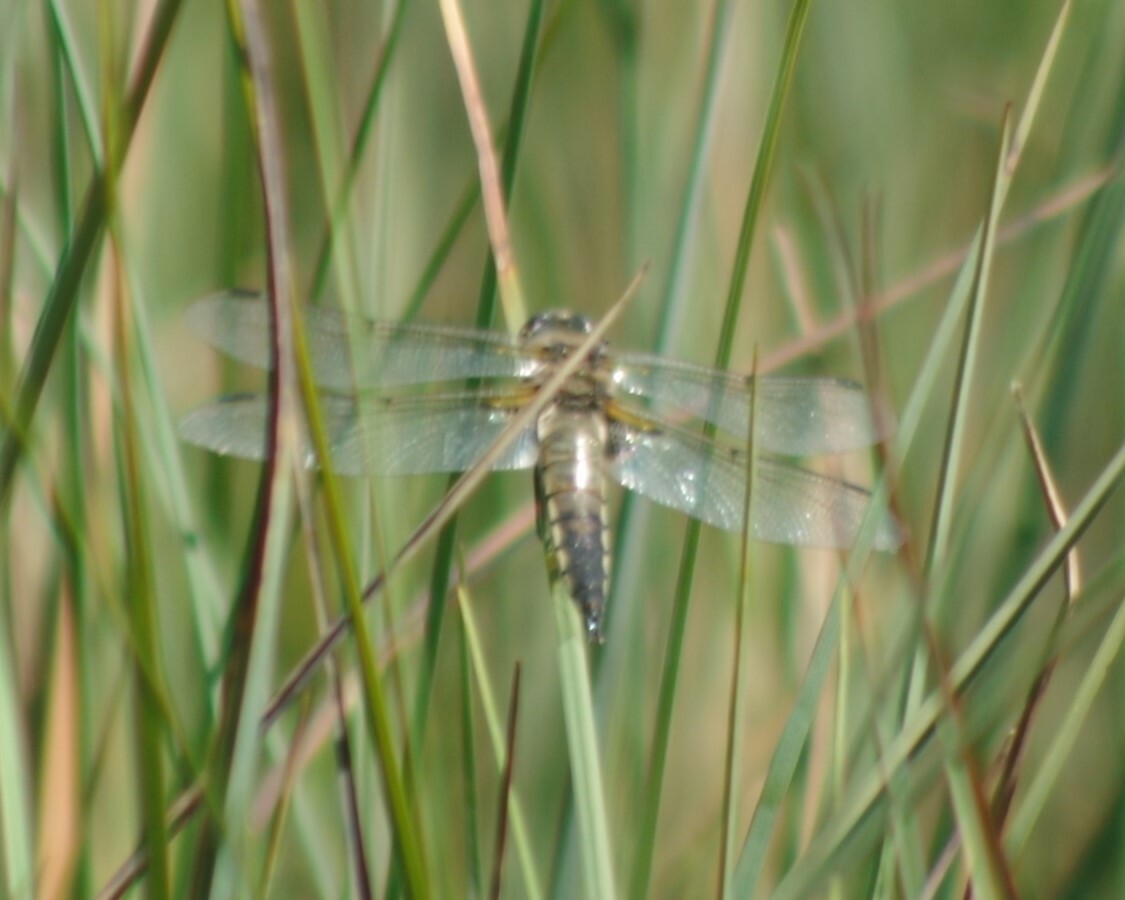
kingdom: Animalia
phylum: Arthropoda
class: Insecta
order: Odonata
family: Libellulidae
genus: Libellula
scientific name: Libellula quadrimaculata
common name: Four-spotted chaser
